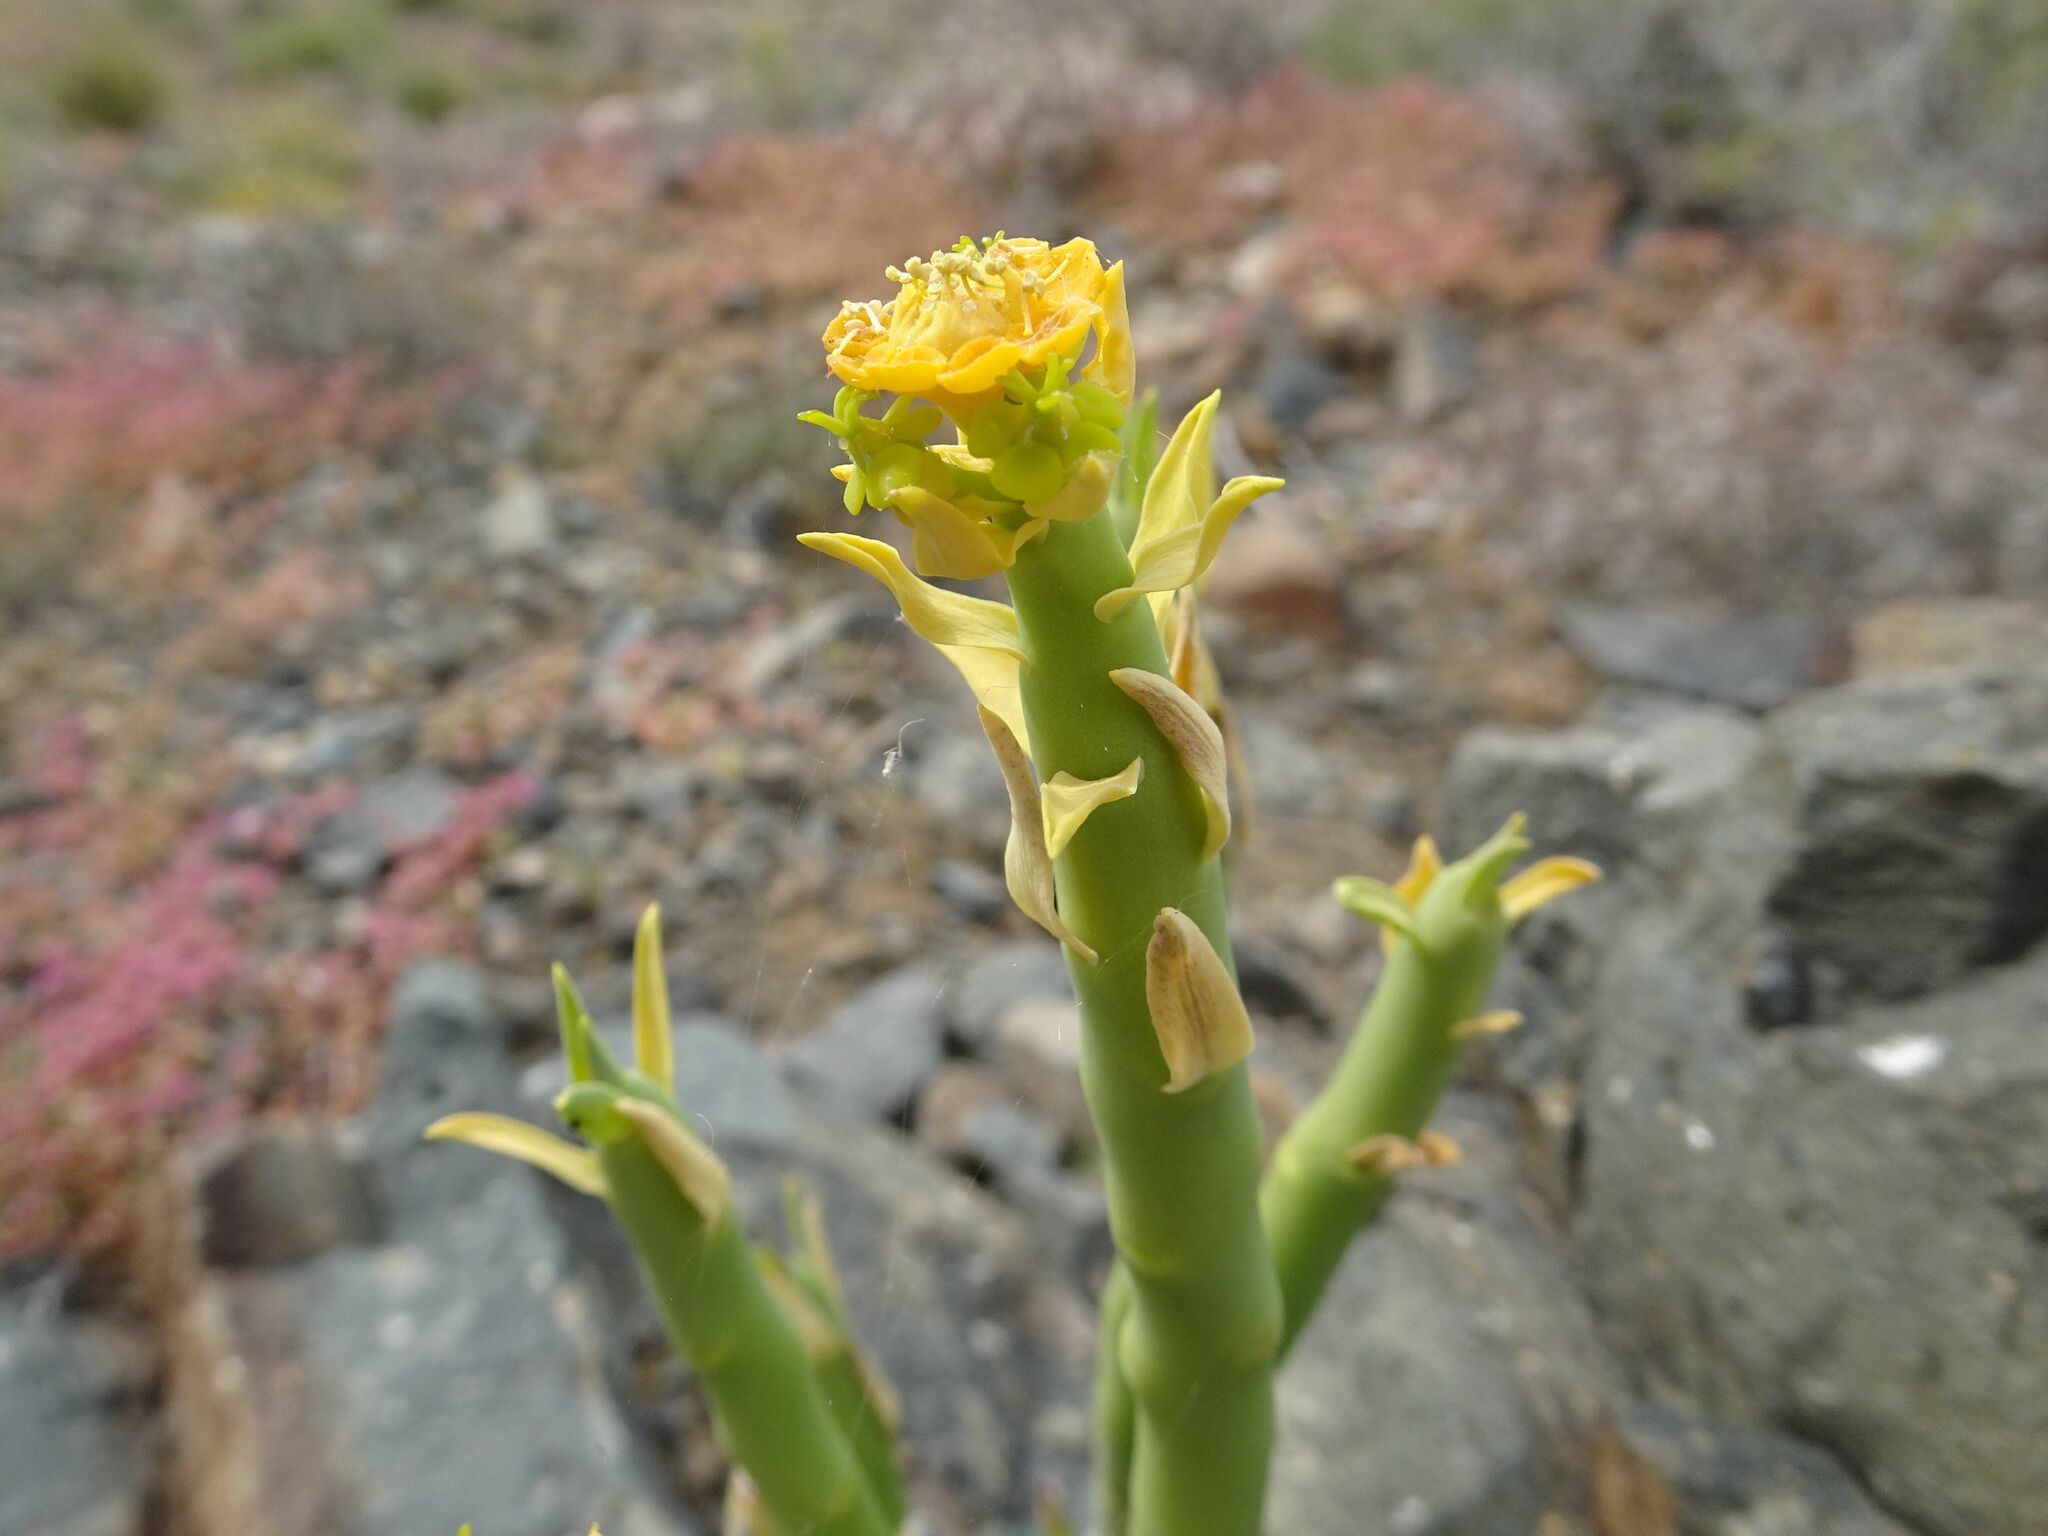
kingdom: Plantae
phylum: Tracheophyta
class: Magnoliopsida
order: Malpighiales
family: Euphorbiaceae
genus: Euphorbia
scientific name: Euphorbia mauritanica
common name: Jackal's-food
